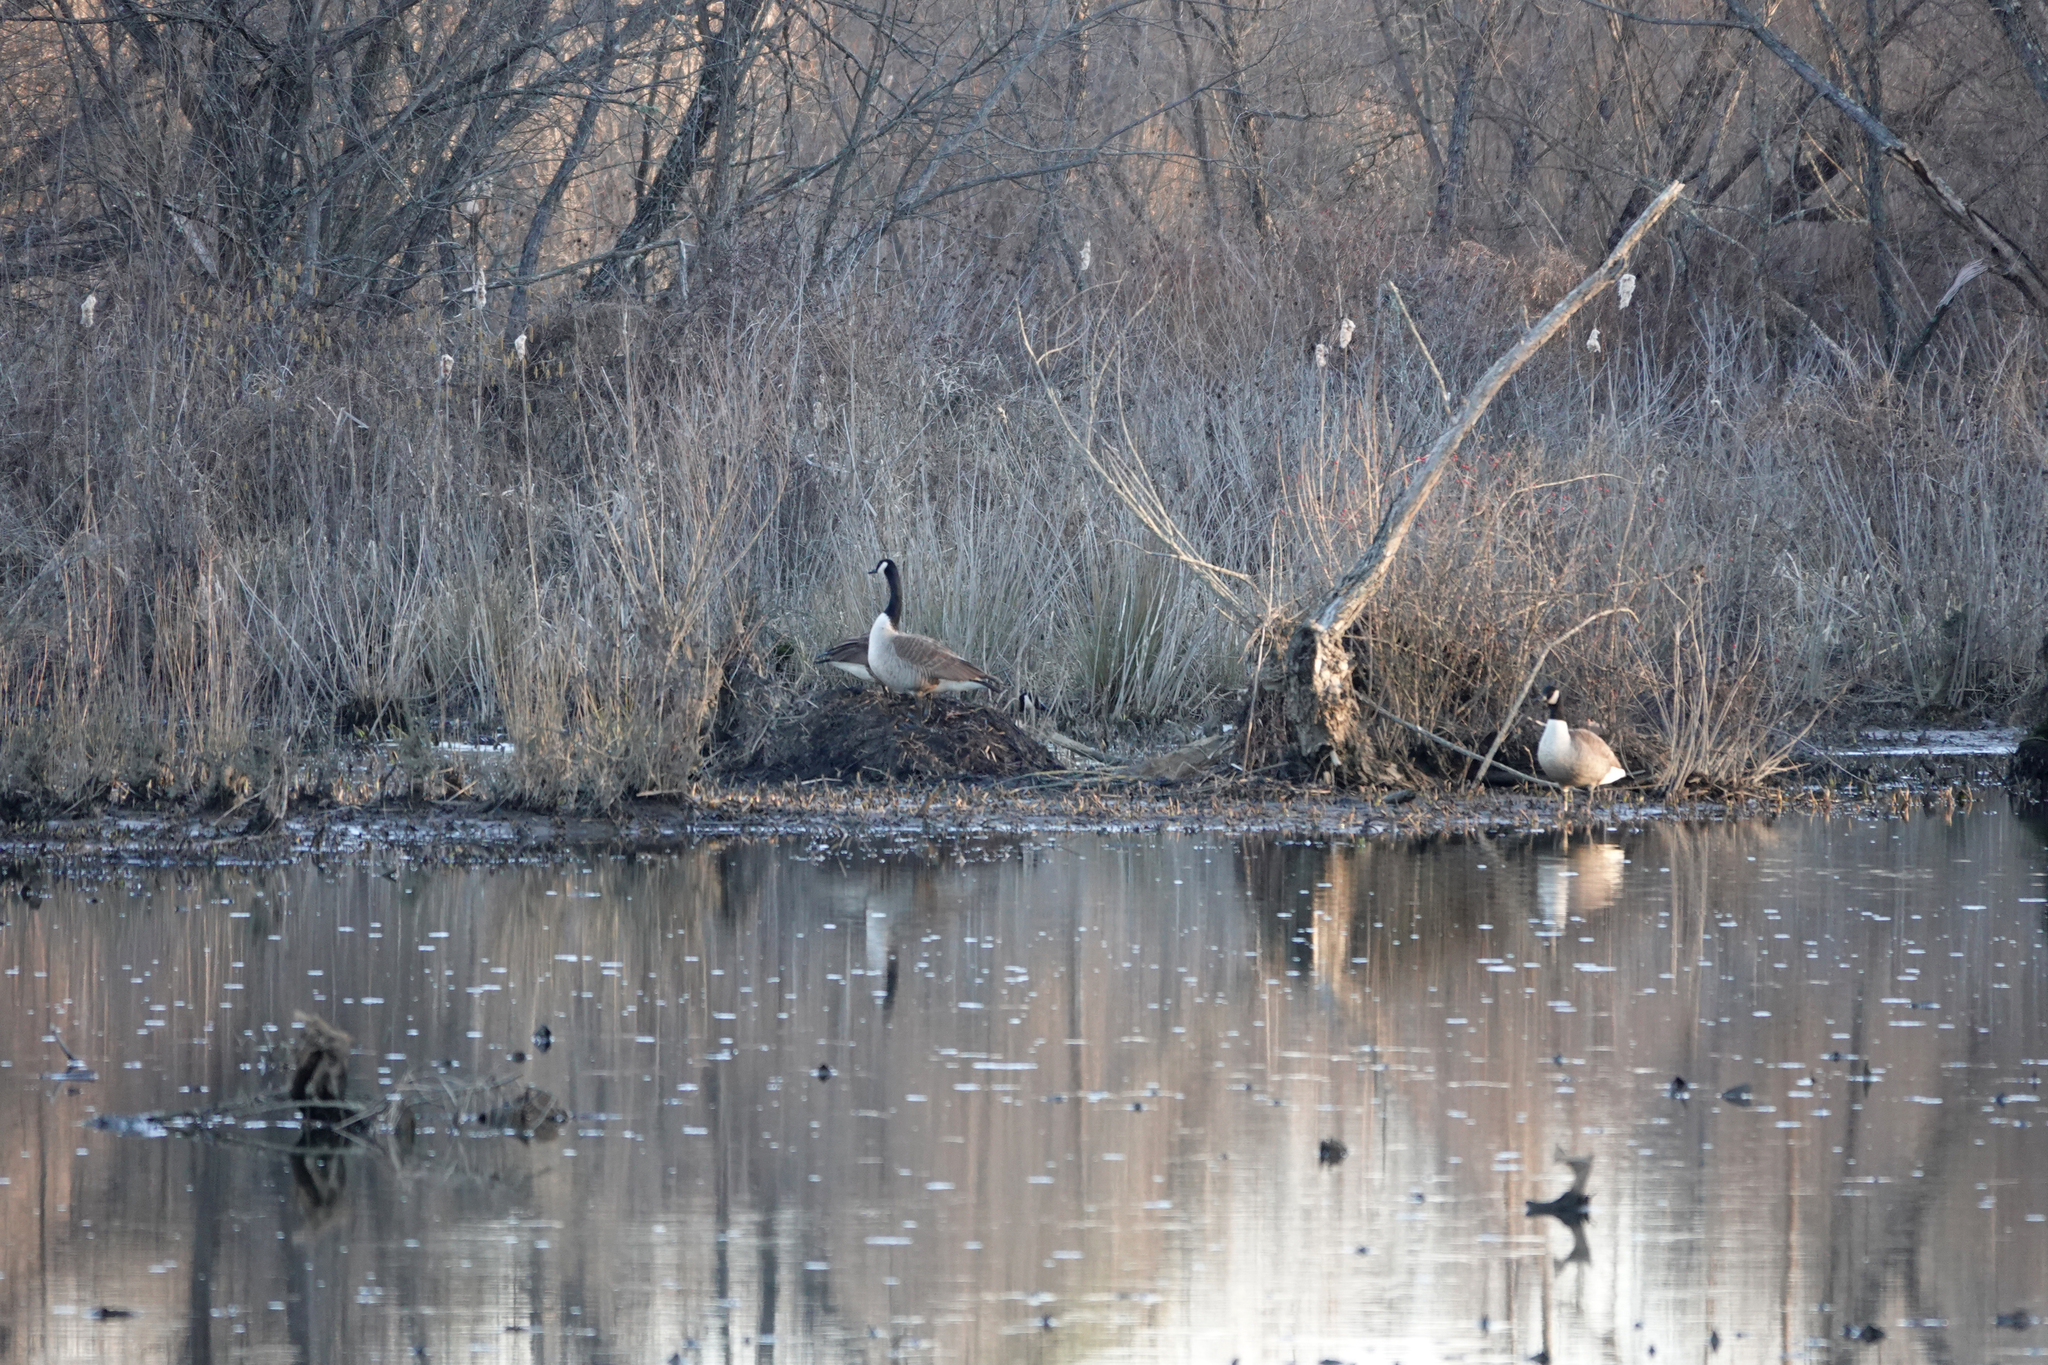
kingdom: Animalia
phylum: Chordata
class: Aves
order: Anseriformes
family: Anatidae
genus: Branta
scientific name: Branta canadensis
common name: Canada goose
